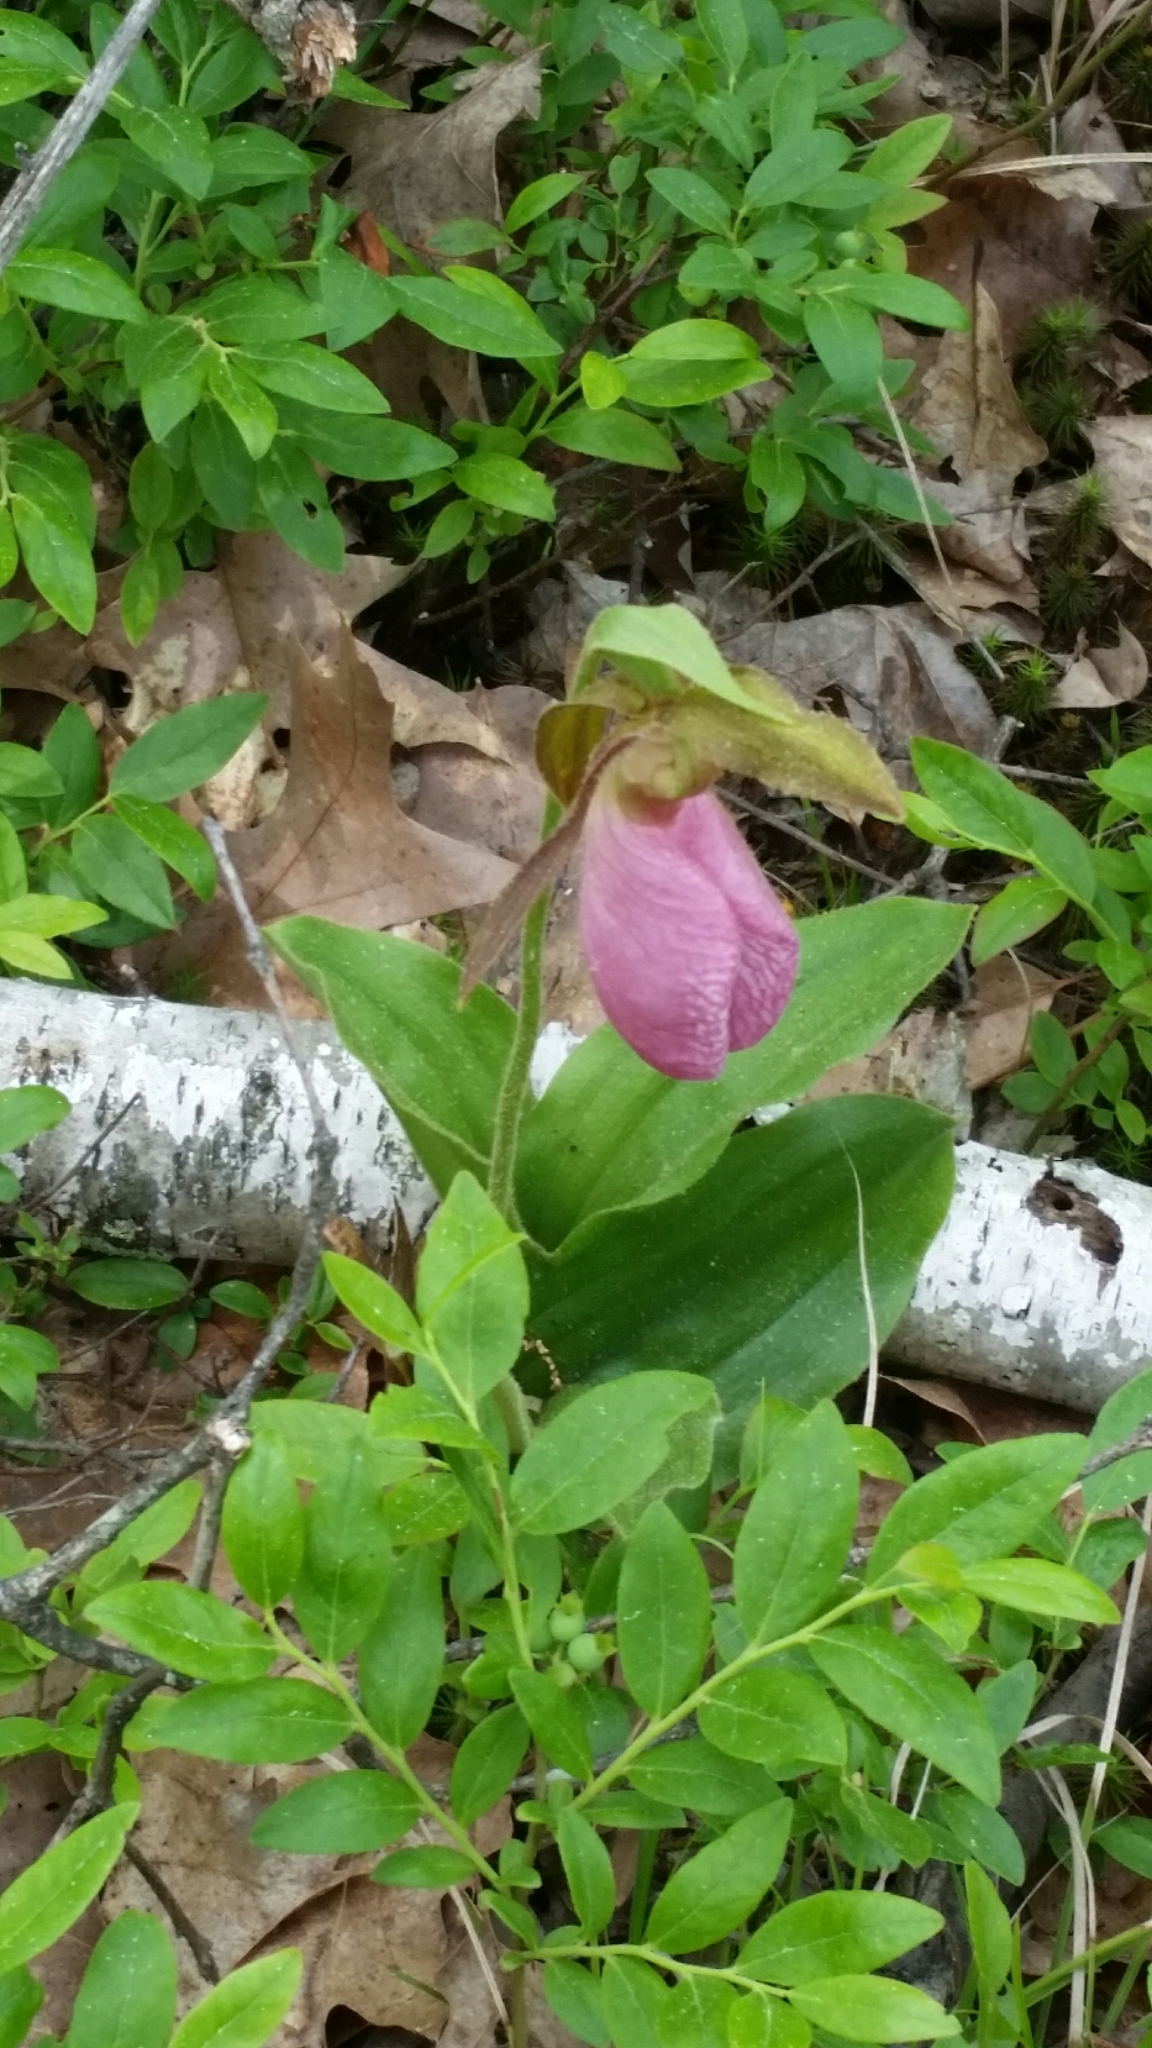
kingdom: Plantae
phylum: Tracheophyta
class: Liliopsida
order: Asparagales
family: Orchidaceae
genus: Cypripedium
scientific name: Cypripedium acaule
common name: Pink lady's-slipper
